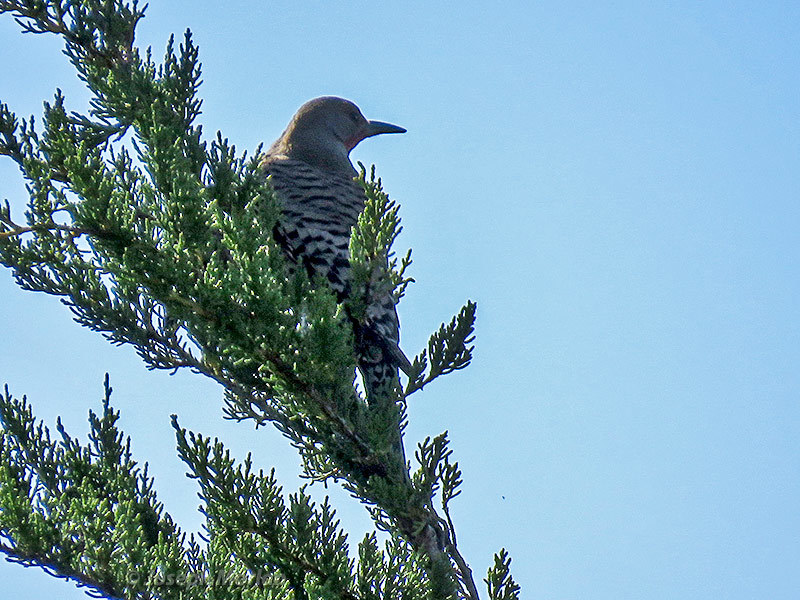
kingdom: Animalia
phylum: Chordata
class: Aves
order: Piciformes
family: Picidae
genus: Colaptes
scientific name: Colaptes auratus
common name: Northern flicker
